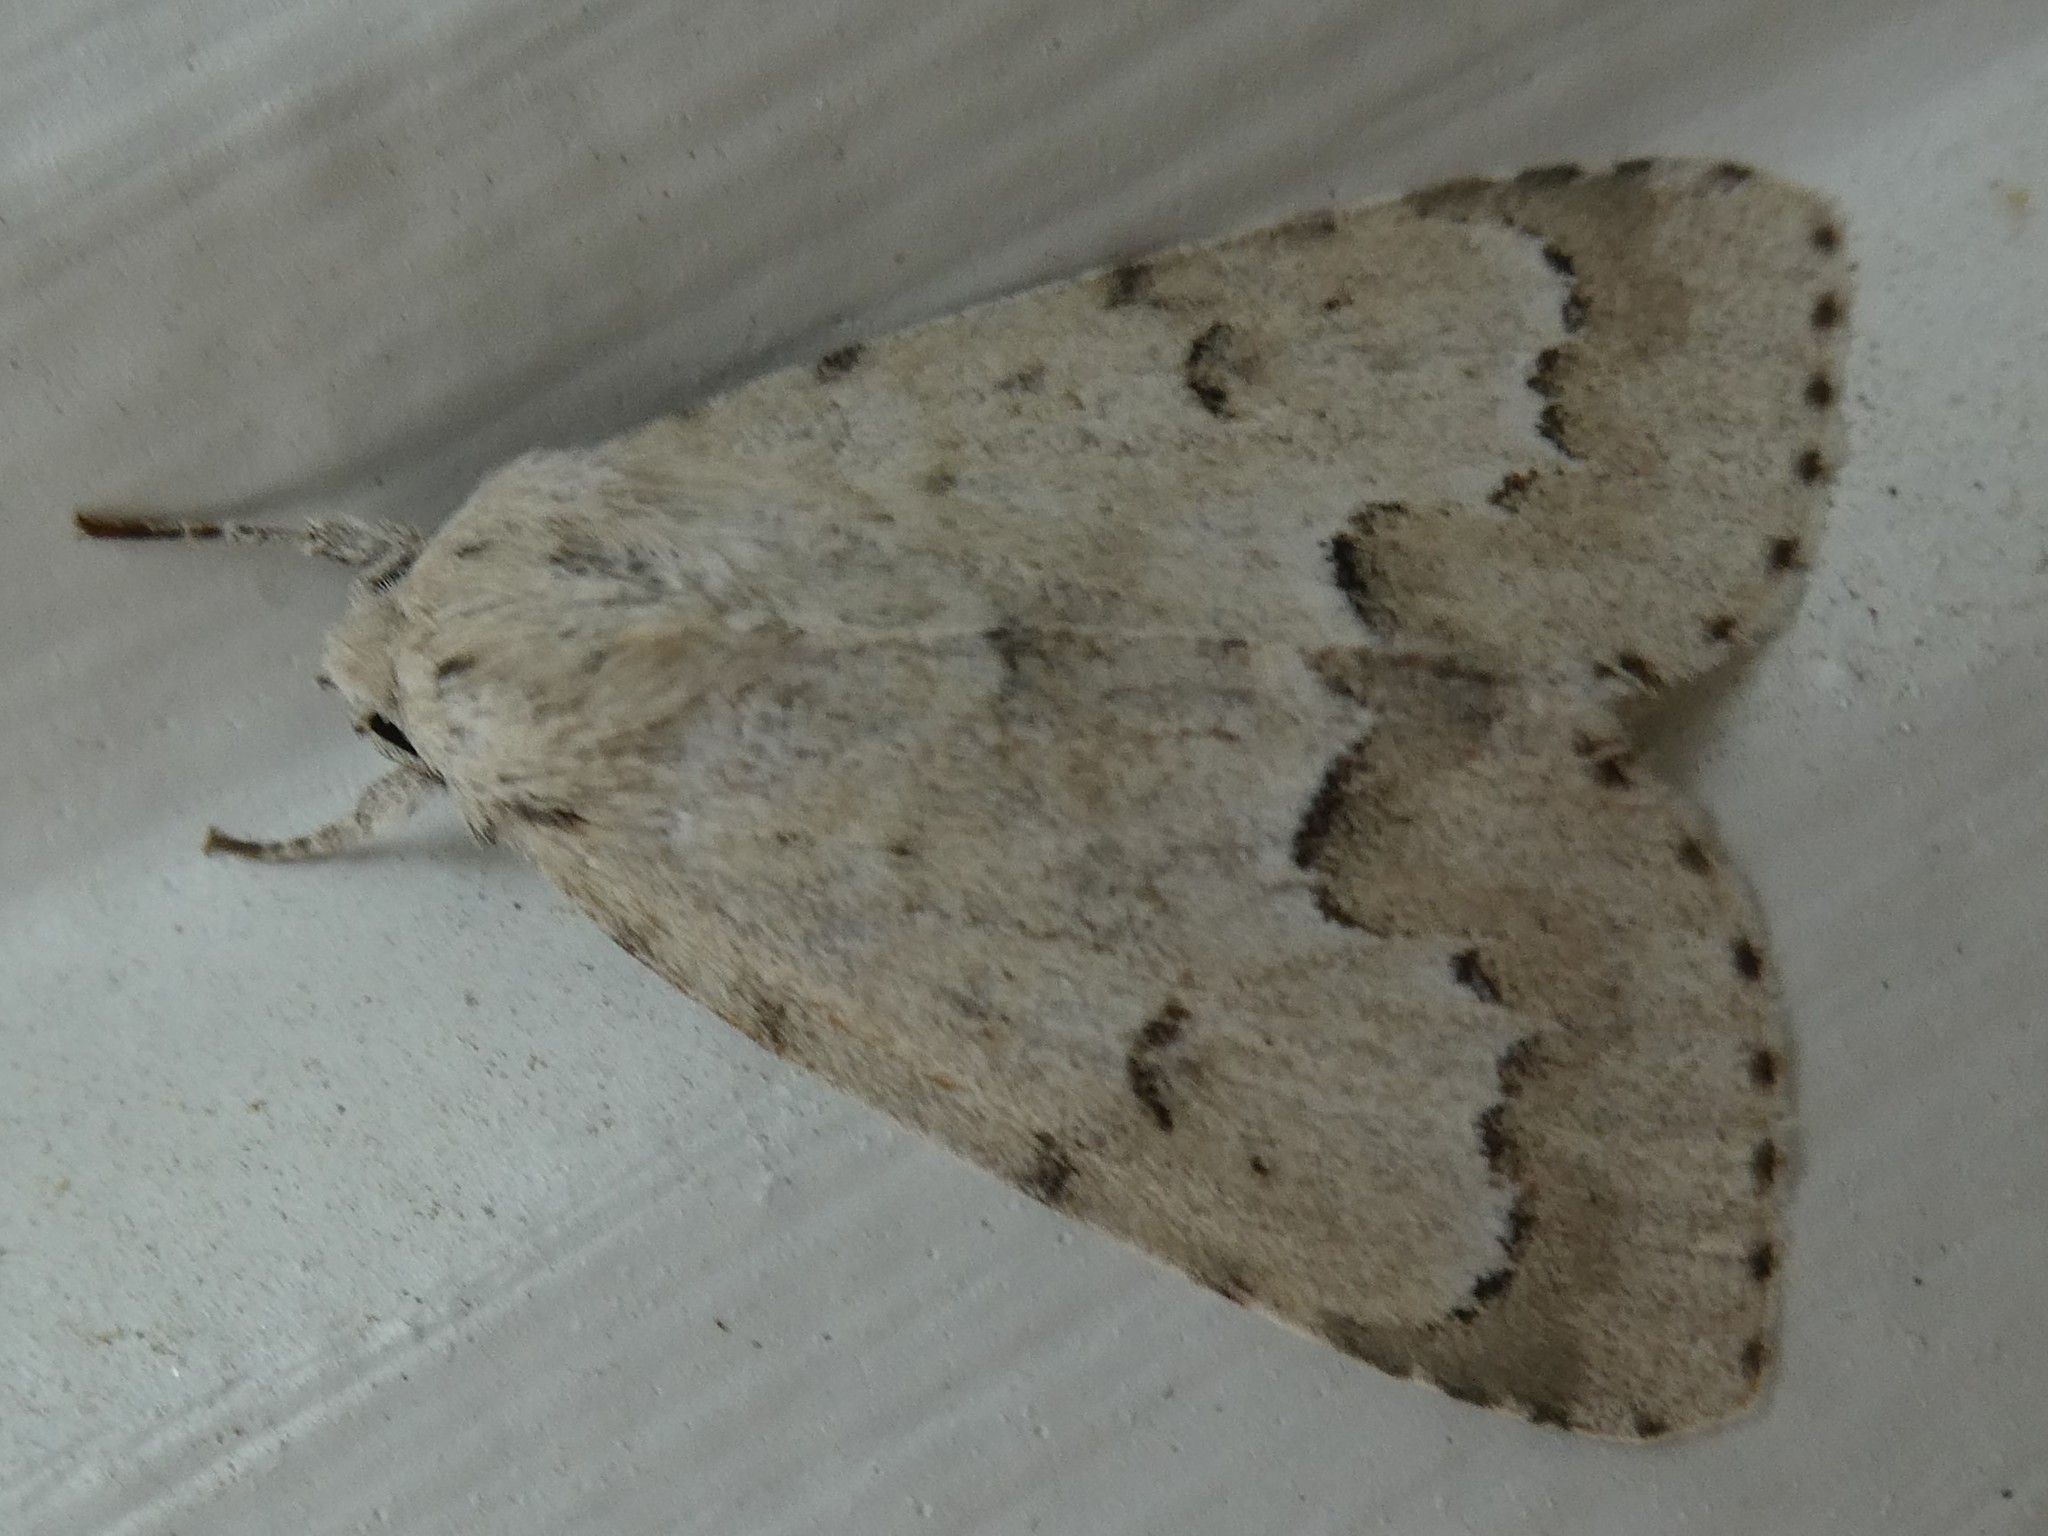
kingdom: Animalia
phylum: Arthropoda
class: Insecta
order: Lepidoptera
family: Noctuidae
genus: Acronicta
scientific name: Acronicta innotata
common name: Unmarked dagger
